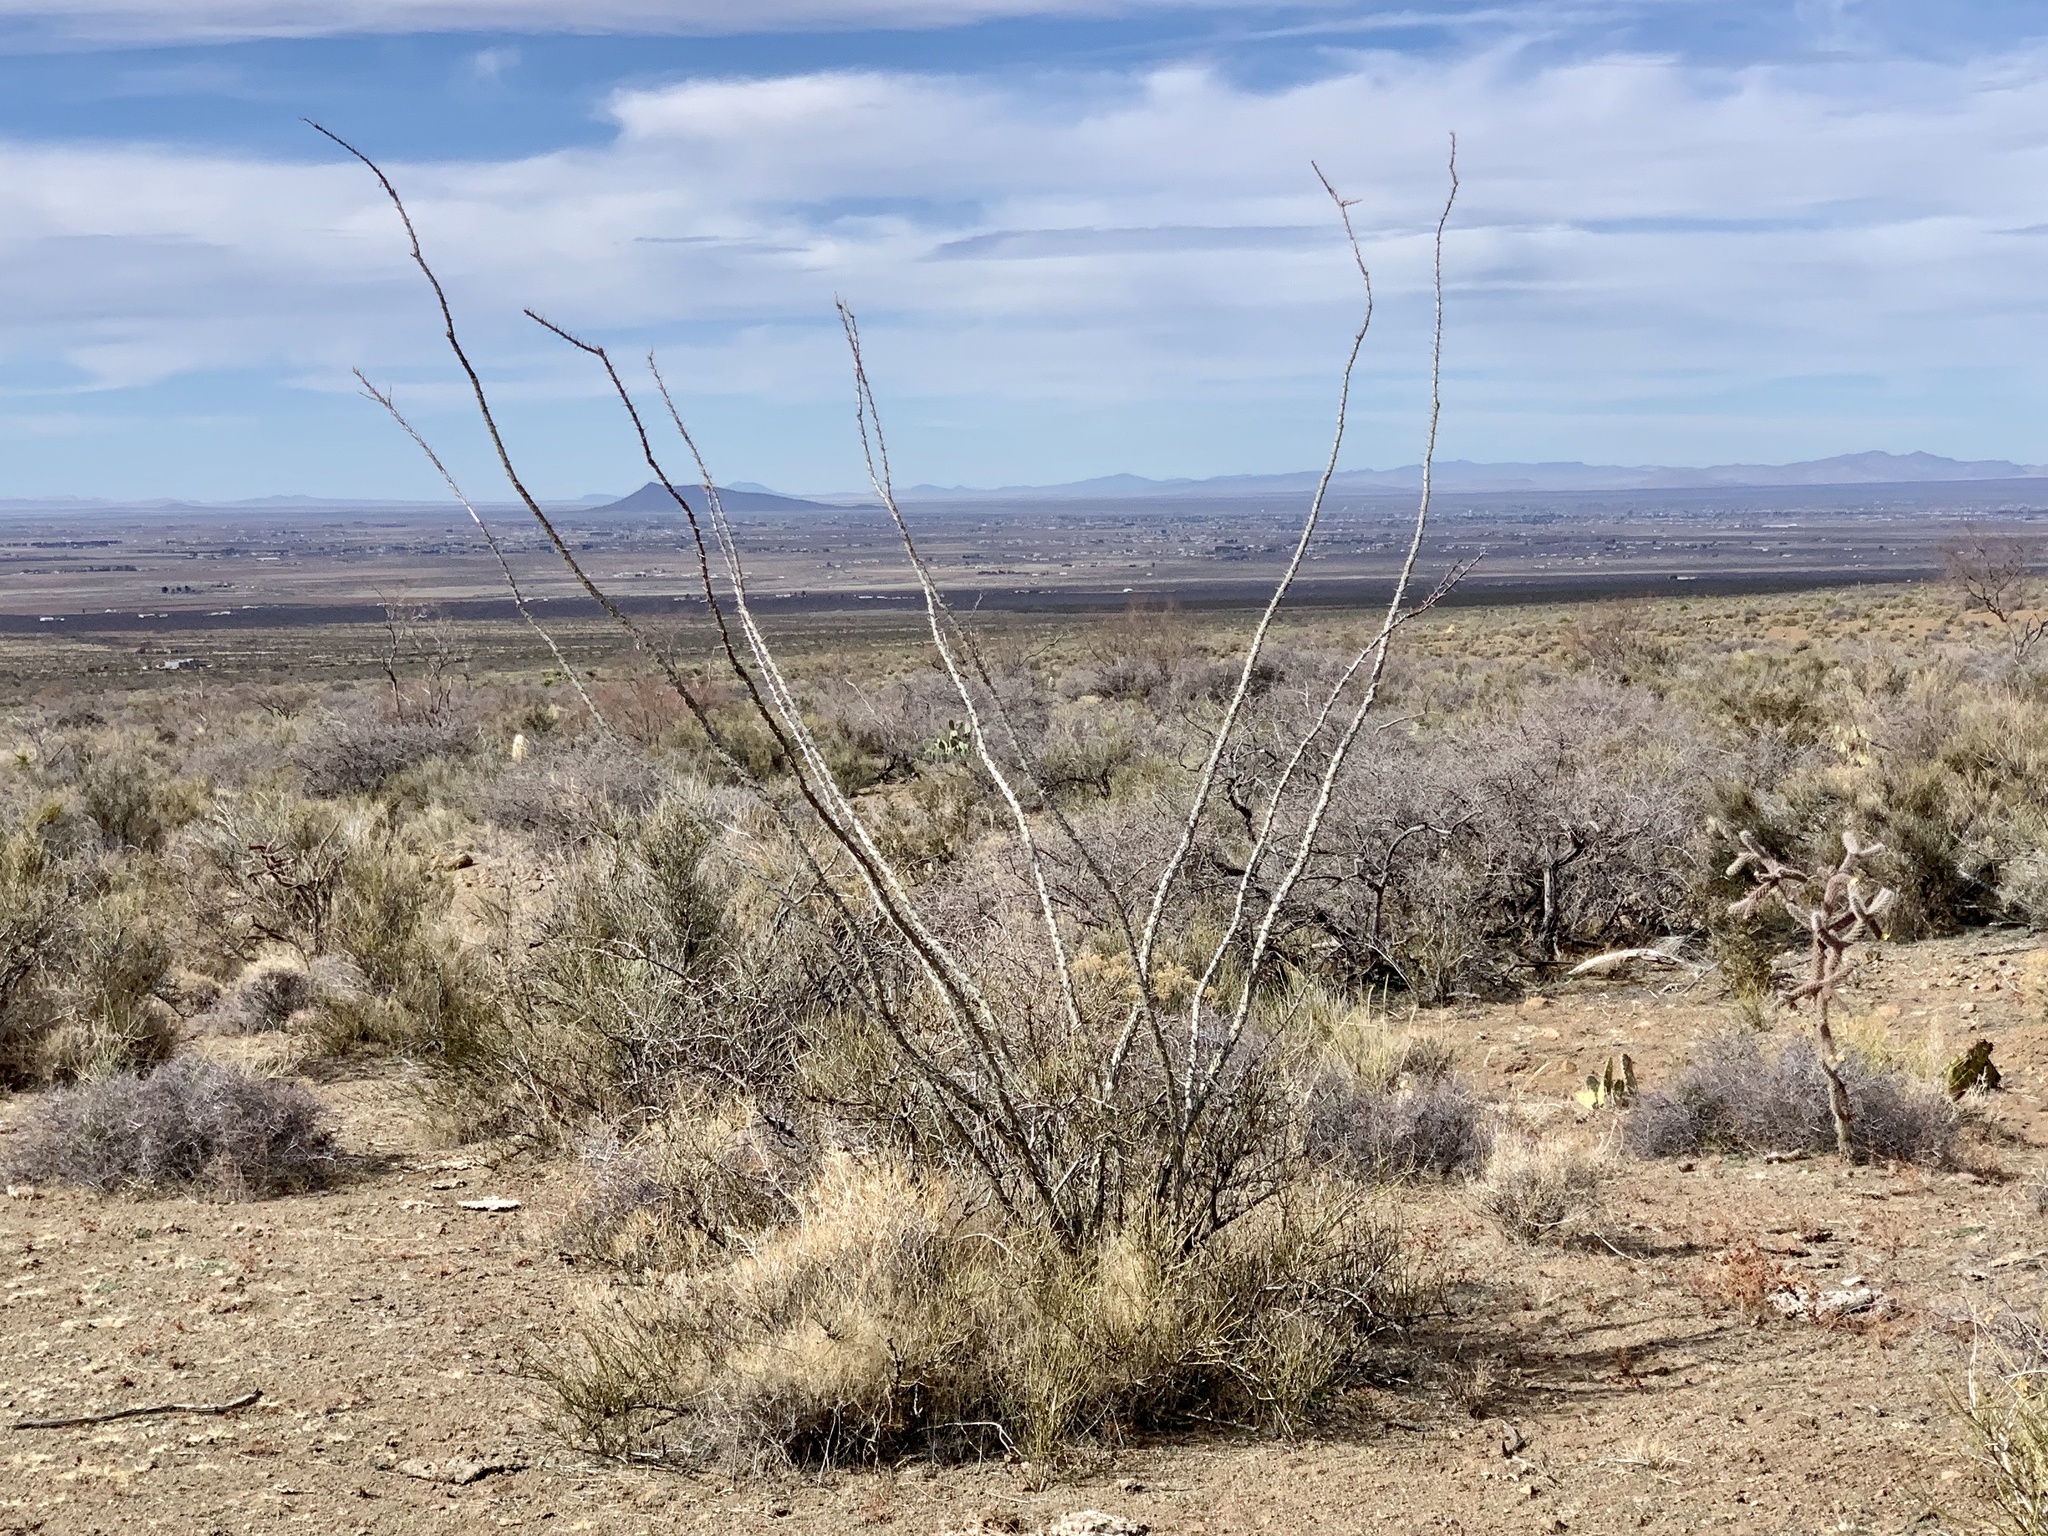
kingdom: Plantae
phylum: Tracheophyta
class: Magnoliopsida
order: Ericales
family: Fouquieriaceae
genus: Fouquieria
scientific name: Fouquieria splendens
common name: Vine-cactus
